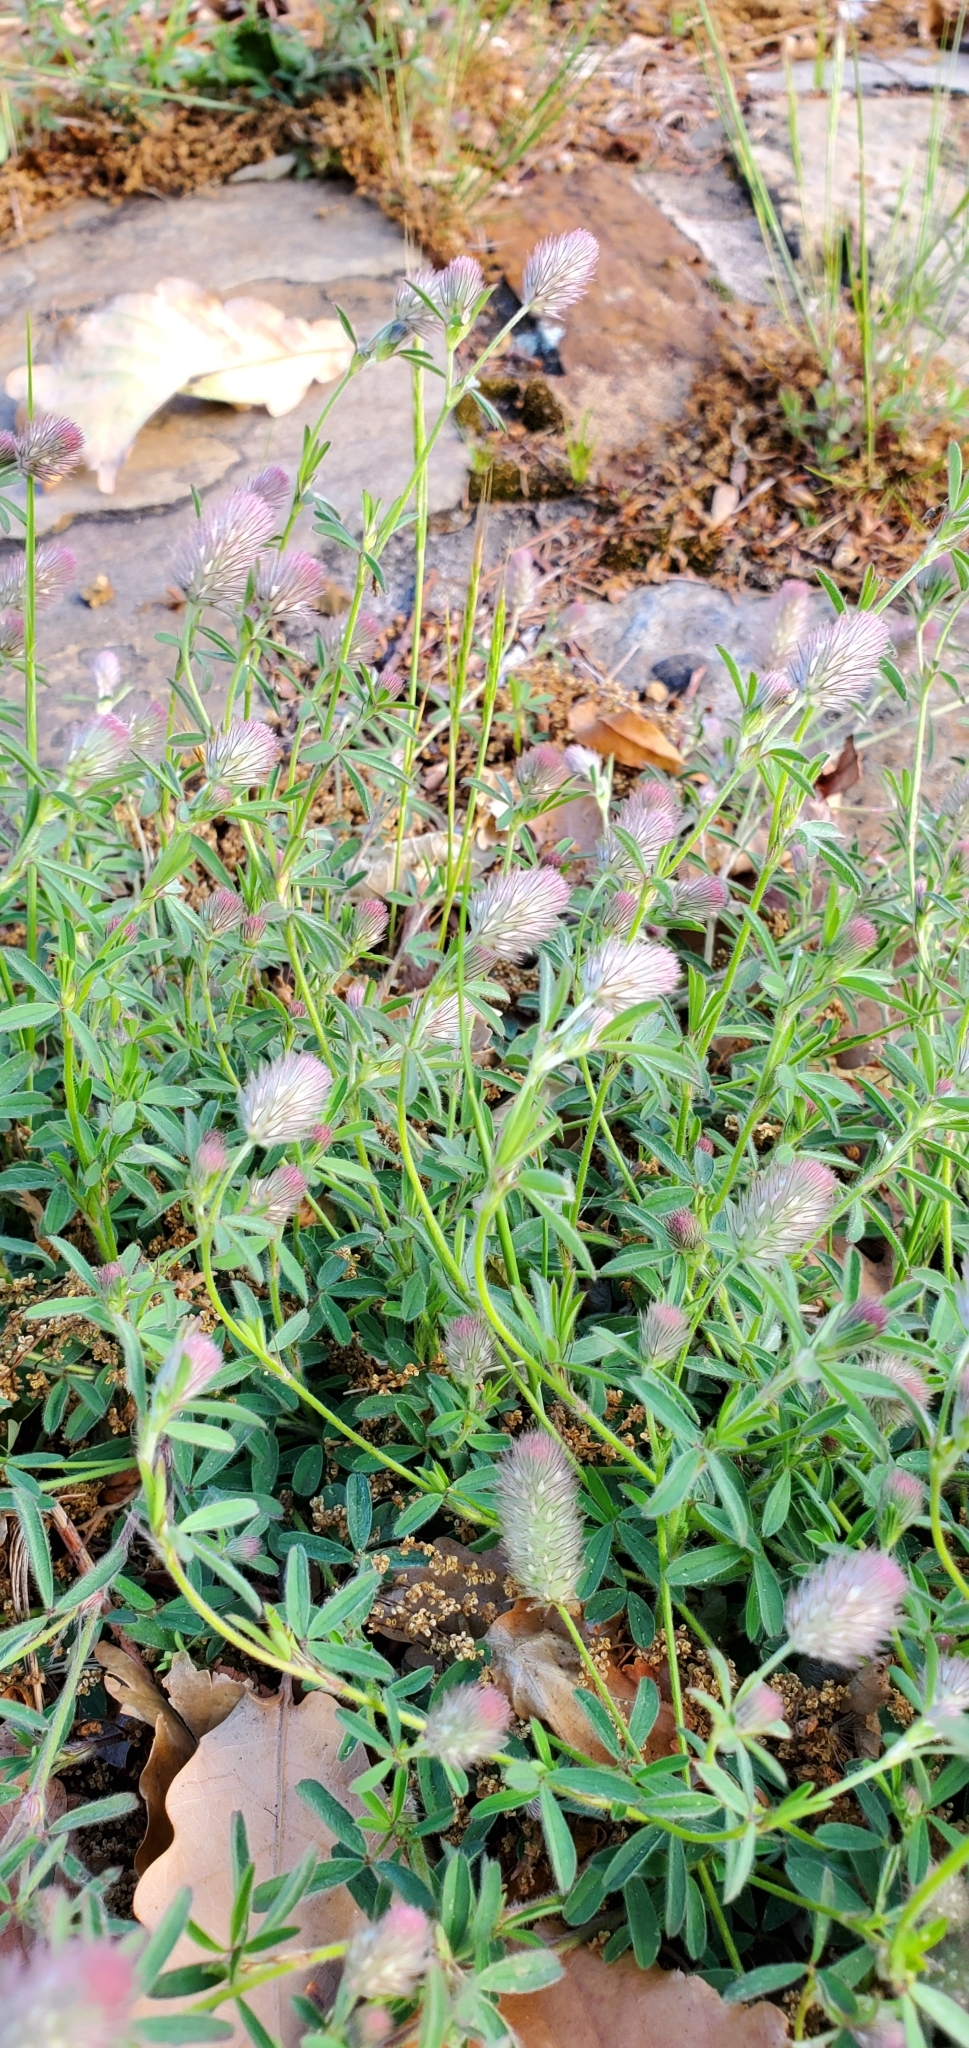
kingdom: Plantae
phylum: Tracheophyta
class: Magnoliopsida
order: Fabales
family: Fabaceae
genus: Trifolium
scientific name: Trifolium arvense
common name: Hare's-foot clover
